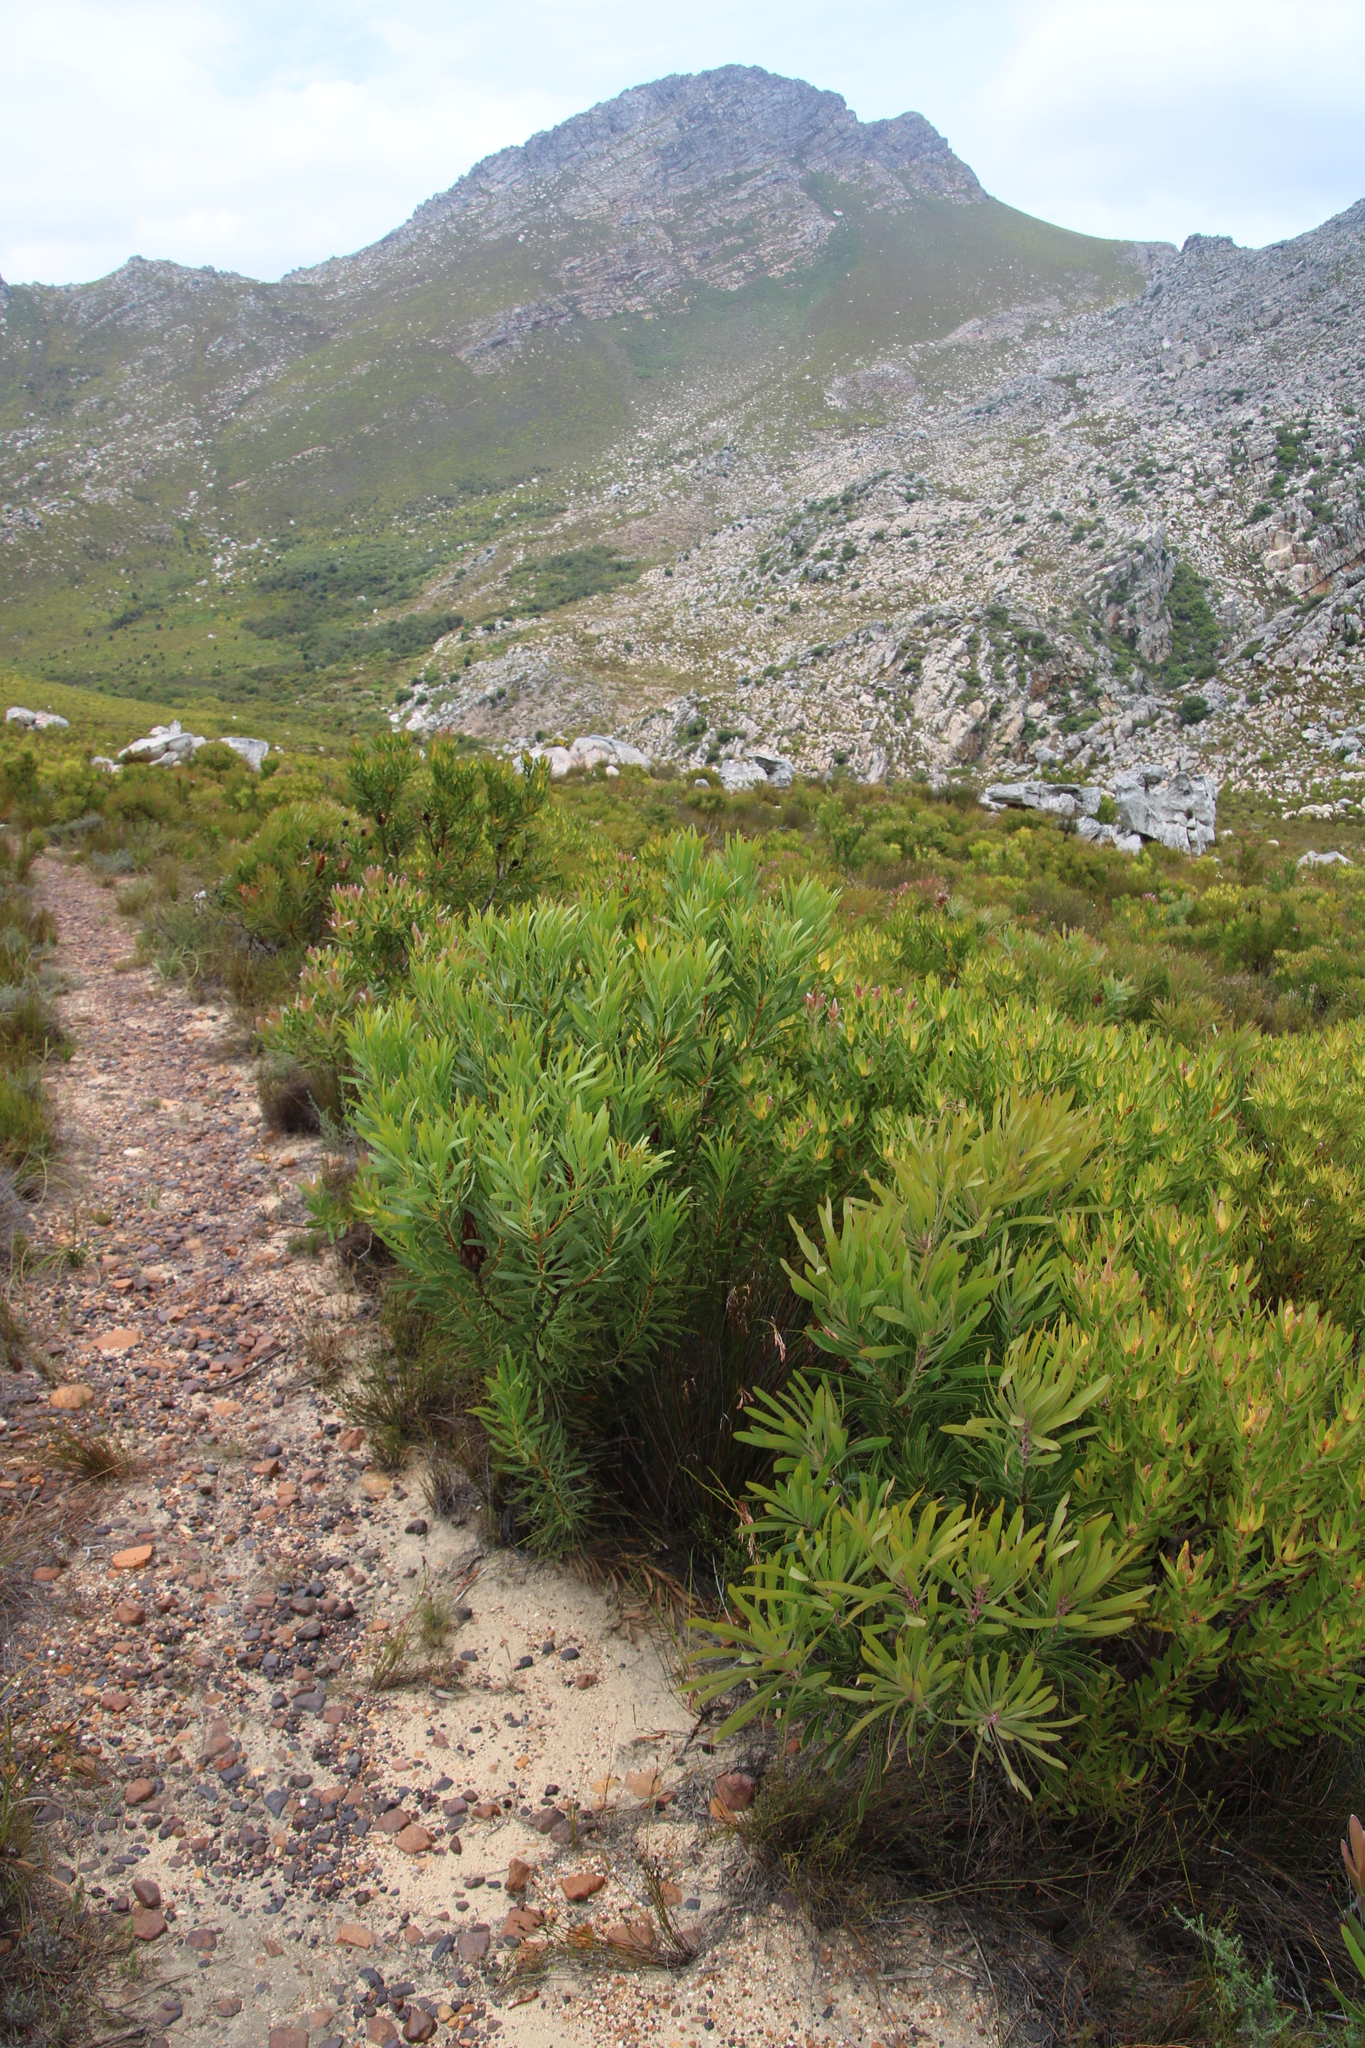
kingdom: Plantae
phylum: Tracheophyta
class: Magnoliopsida
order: Proteales
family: Proteaceae
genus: Protea
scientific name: Protea repens
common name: Sugarbush
